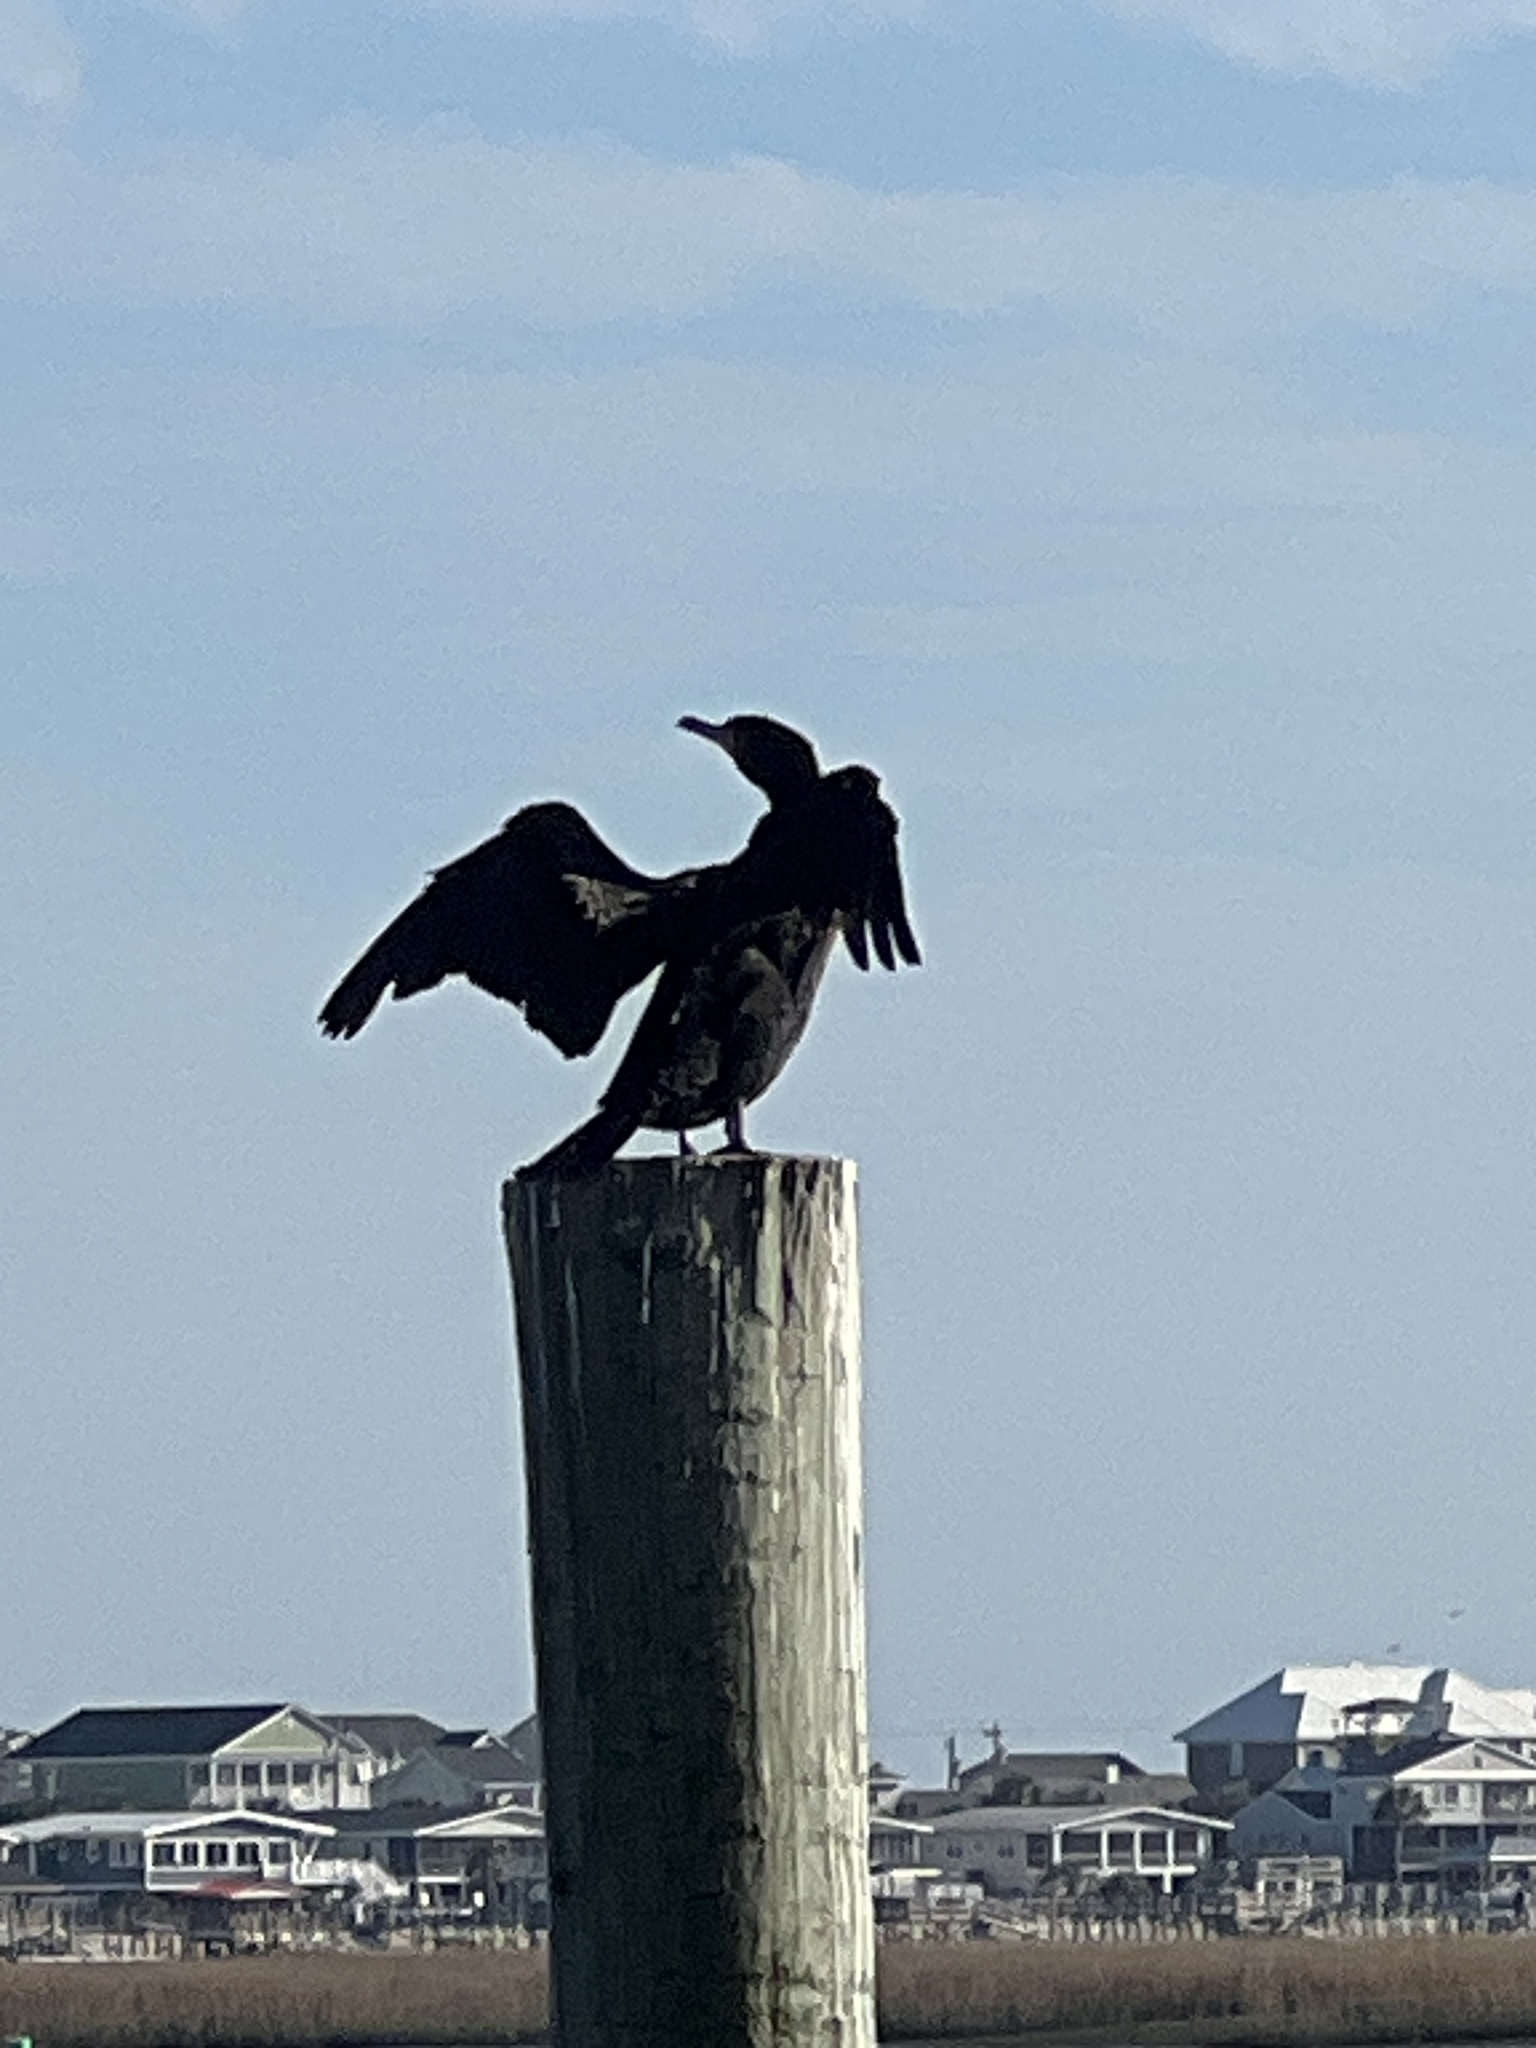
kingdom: Animalia
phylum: Chordata
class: Aves
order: Suliformes
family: Phalacrocoracidae
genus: Phalacrocorax
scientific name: Phalacrocorax auritus
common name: Double-crested cormorant
